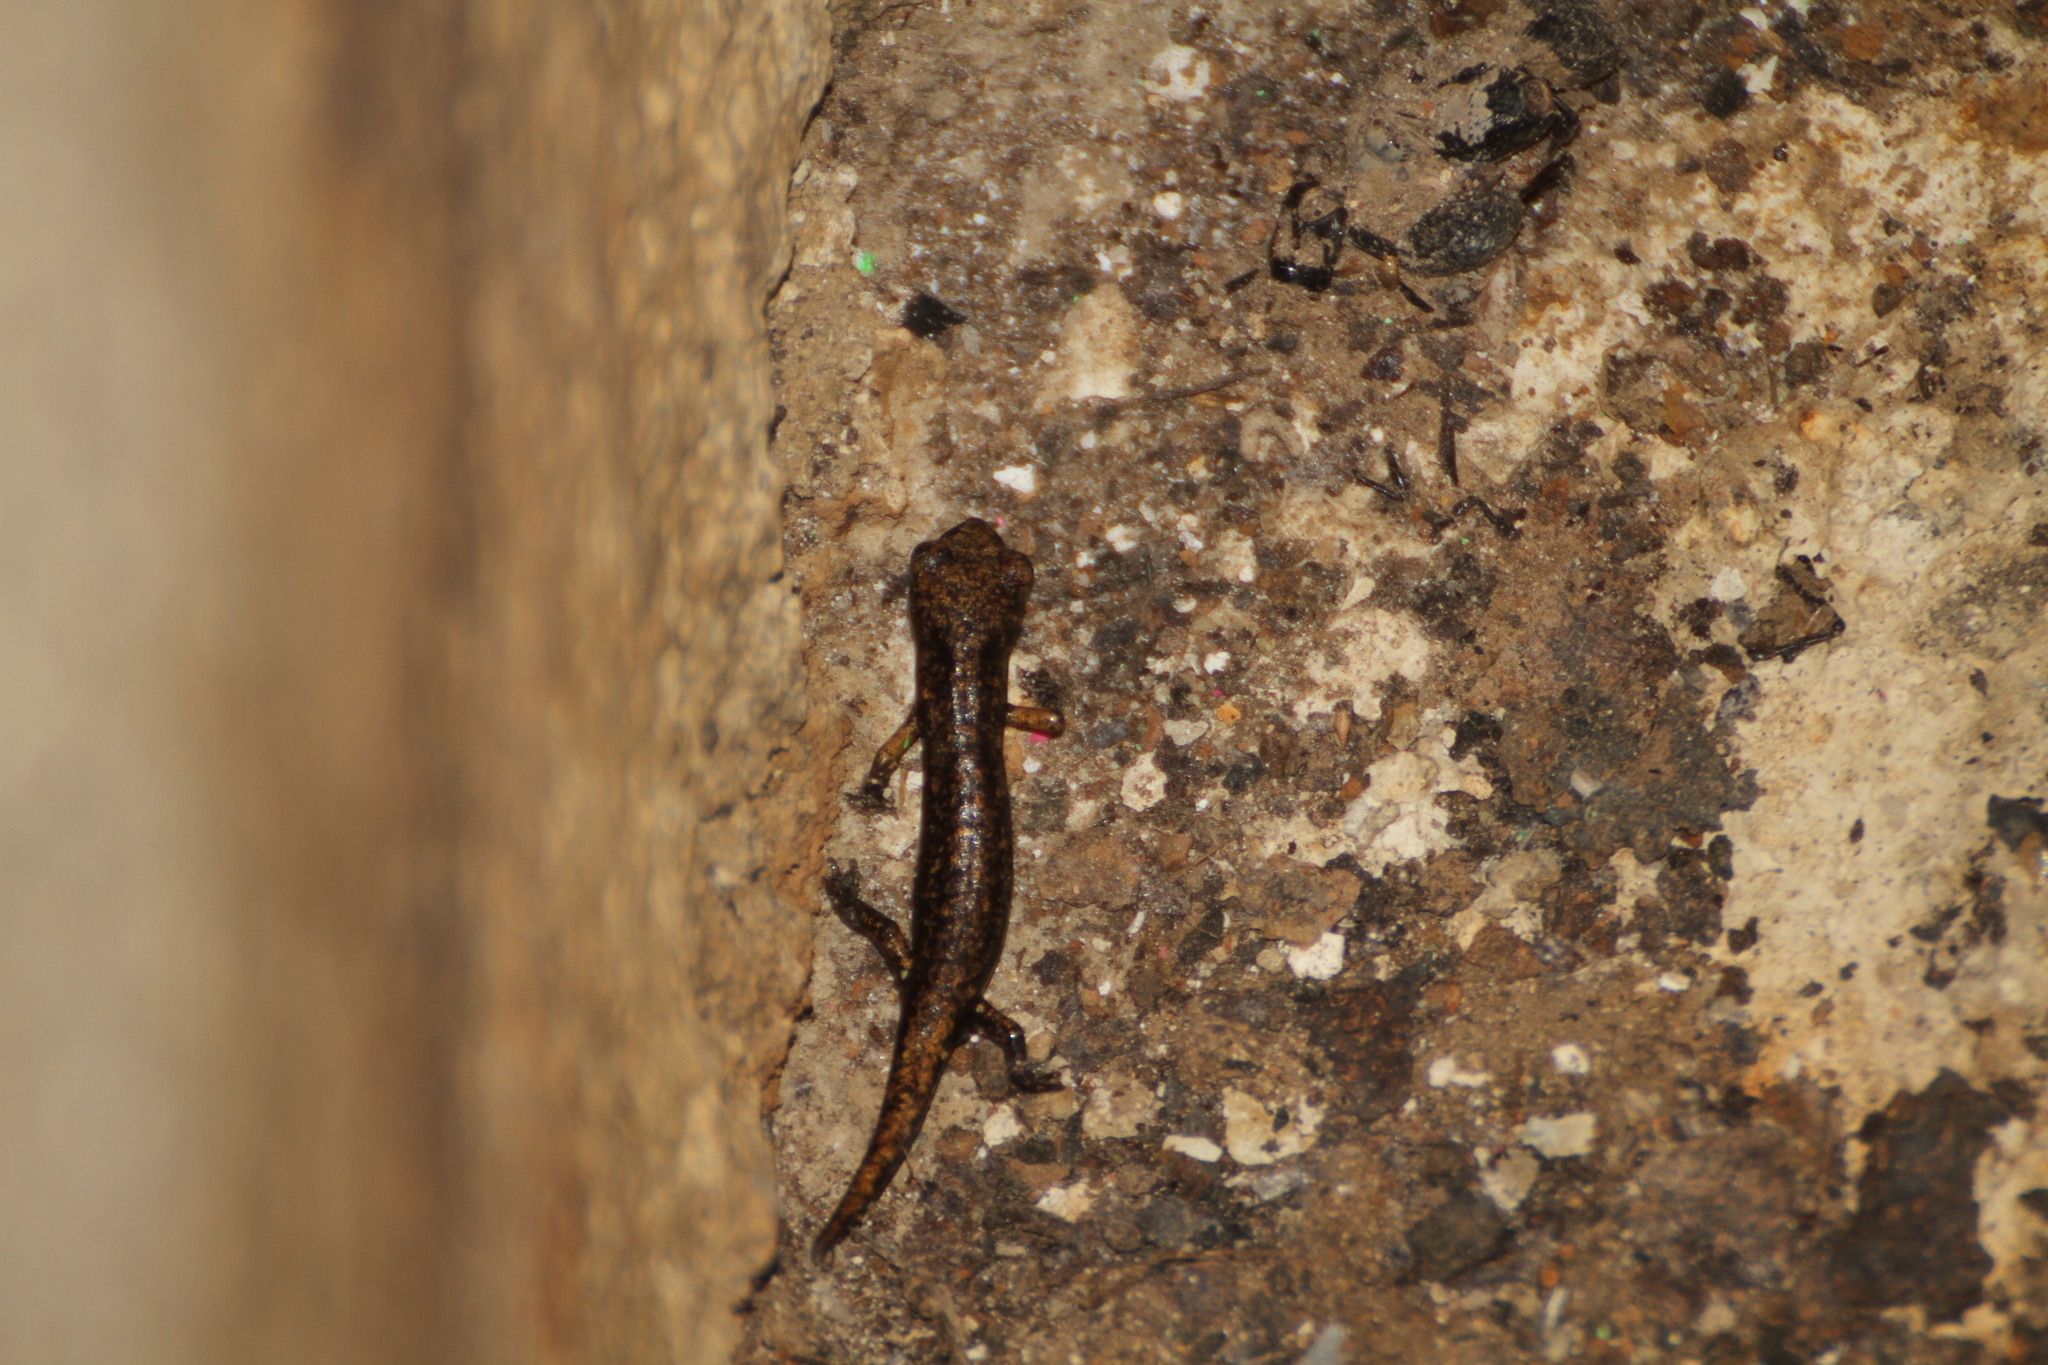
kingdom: Animalia
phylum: Chordata
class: Amphibia
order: Caudata
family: Plethodontidae
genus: Speleomantes
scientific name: Speleomantes strinatii
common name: French cave salamander
